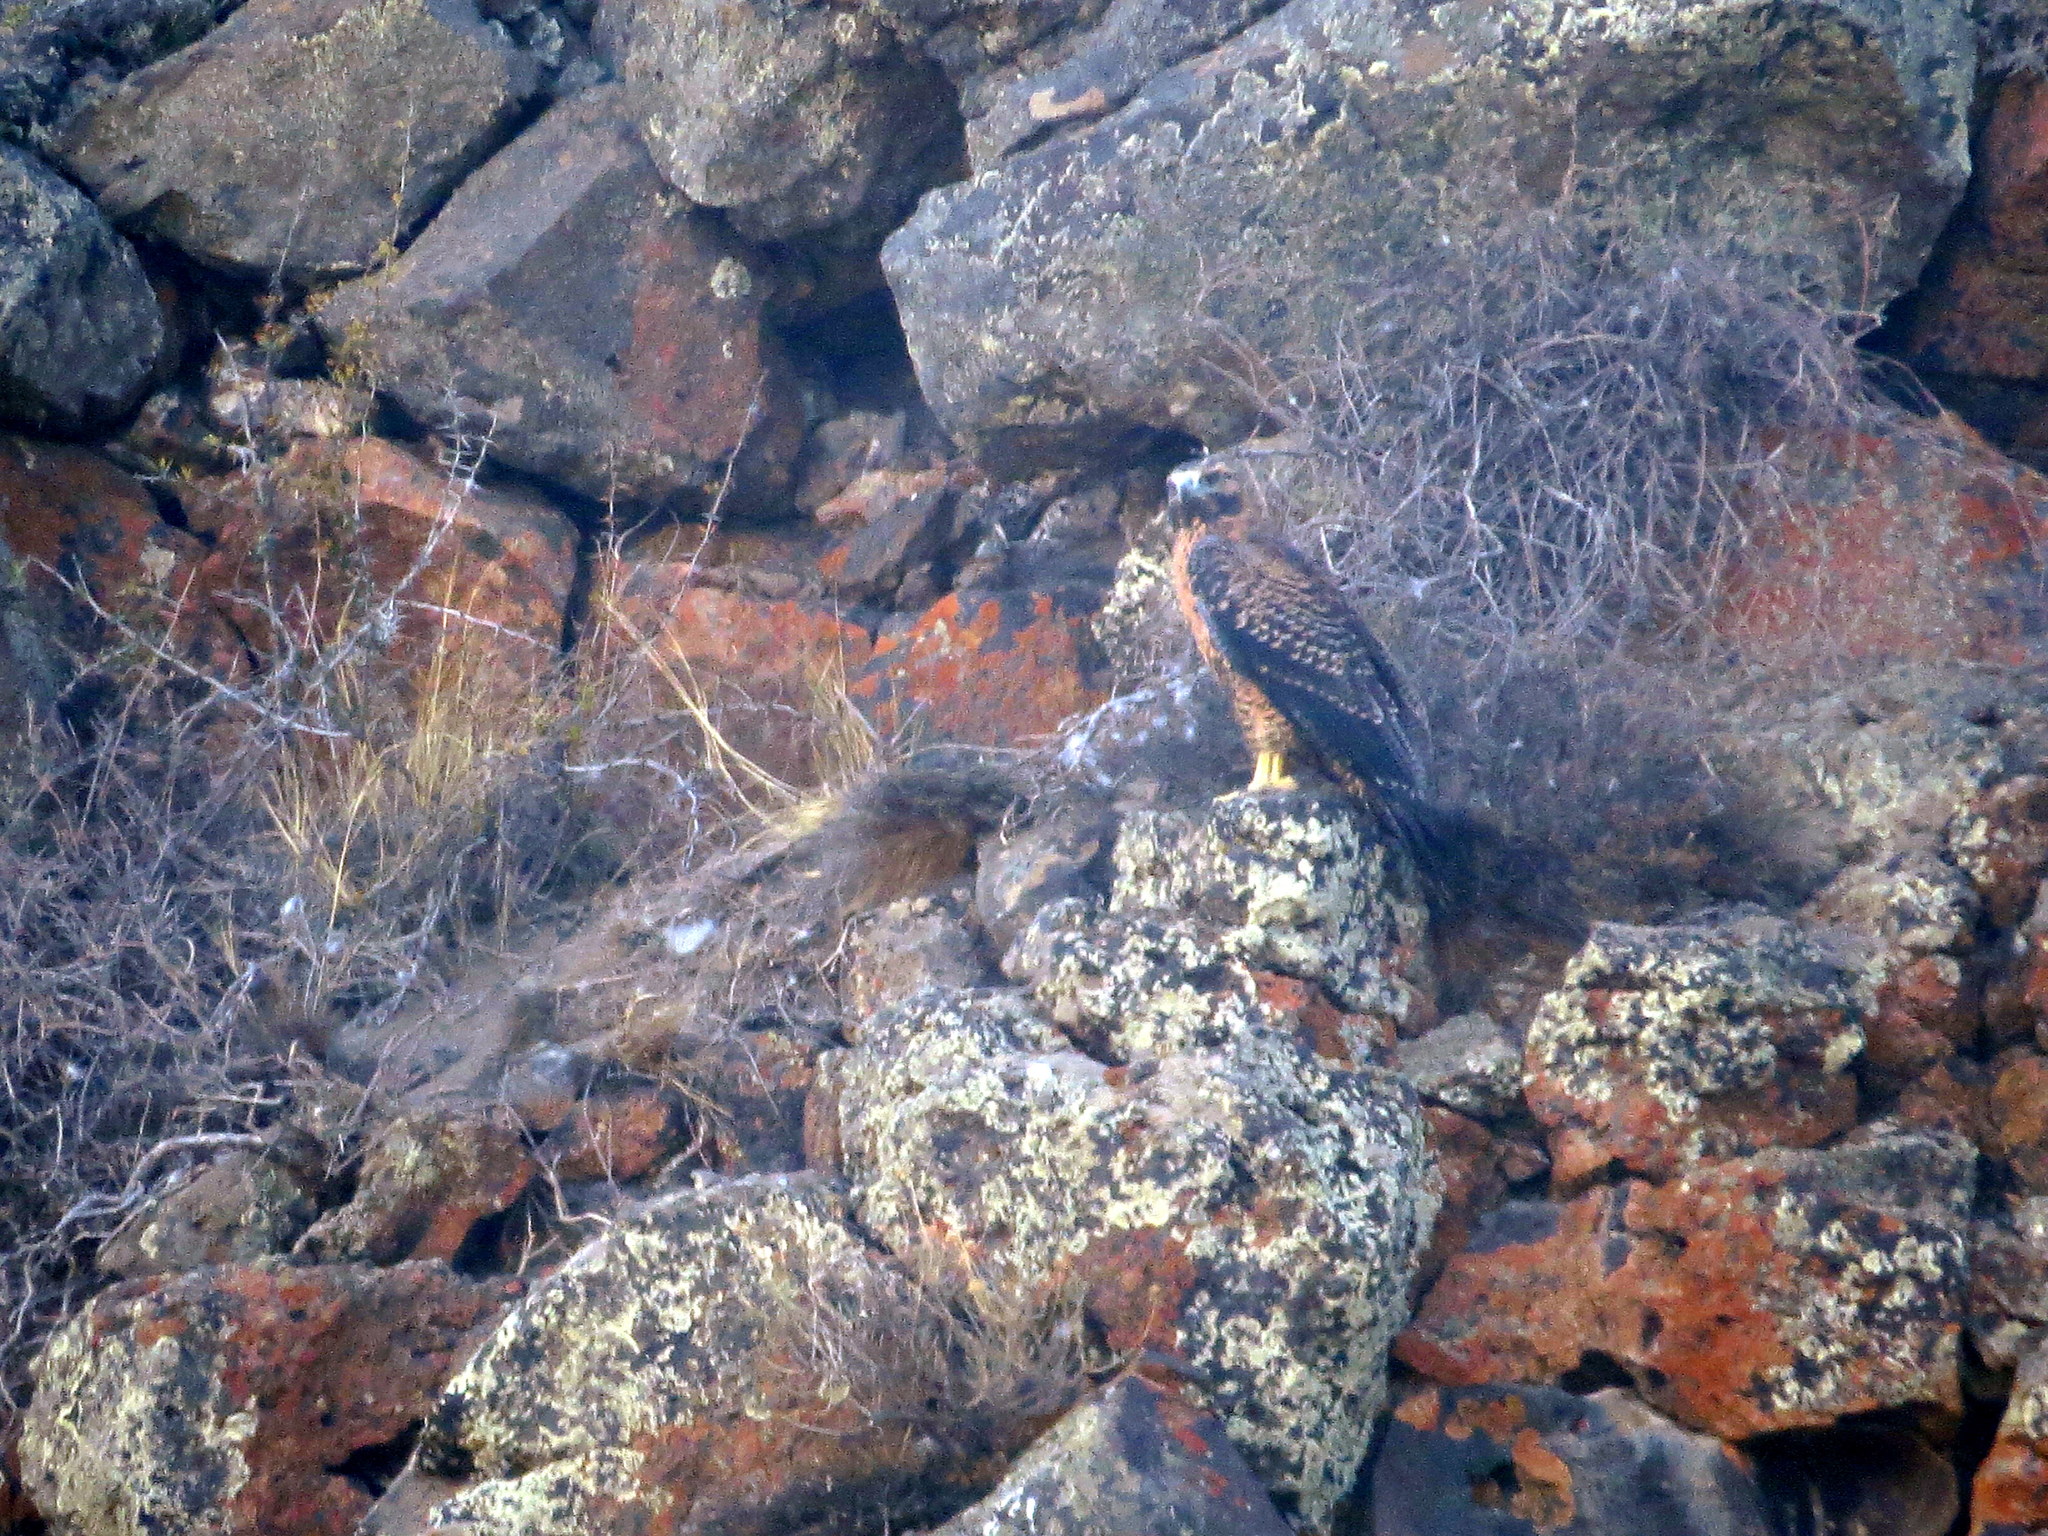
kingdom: Animalia
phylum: Chordata
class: Aves
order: Accipitriformes
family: Accipitridae
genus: Geranoaetus
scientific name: Geranoaetus melanoleucus
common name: Black-chested buzzard-eagle
